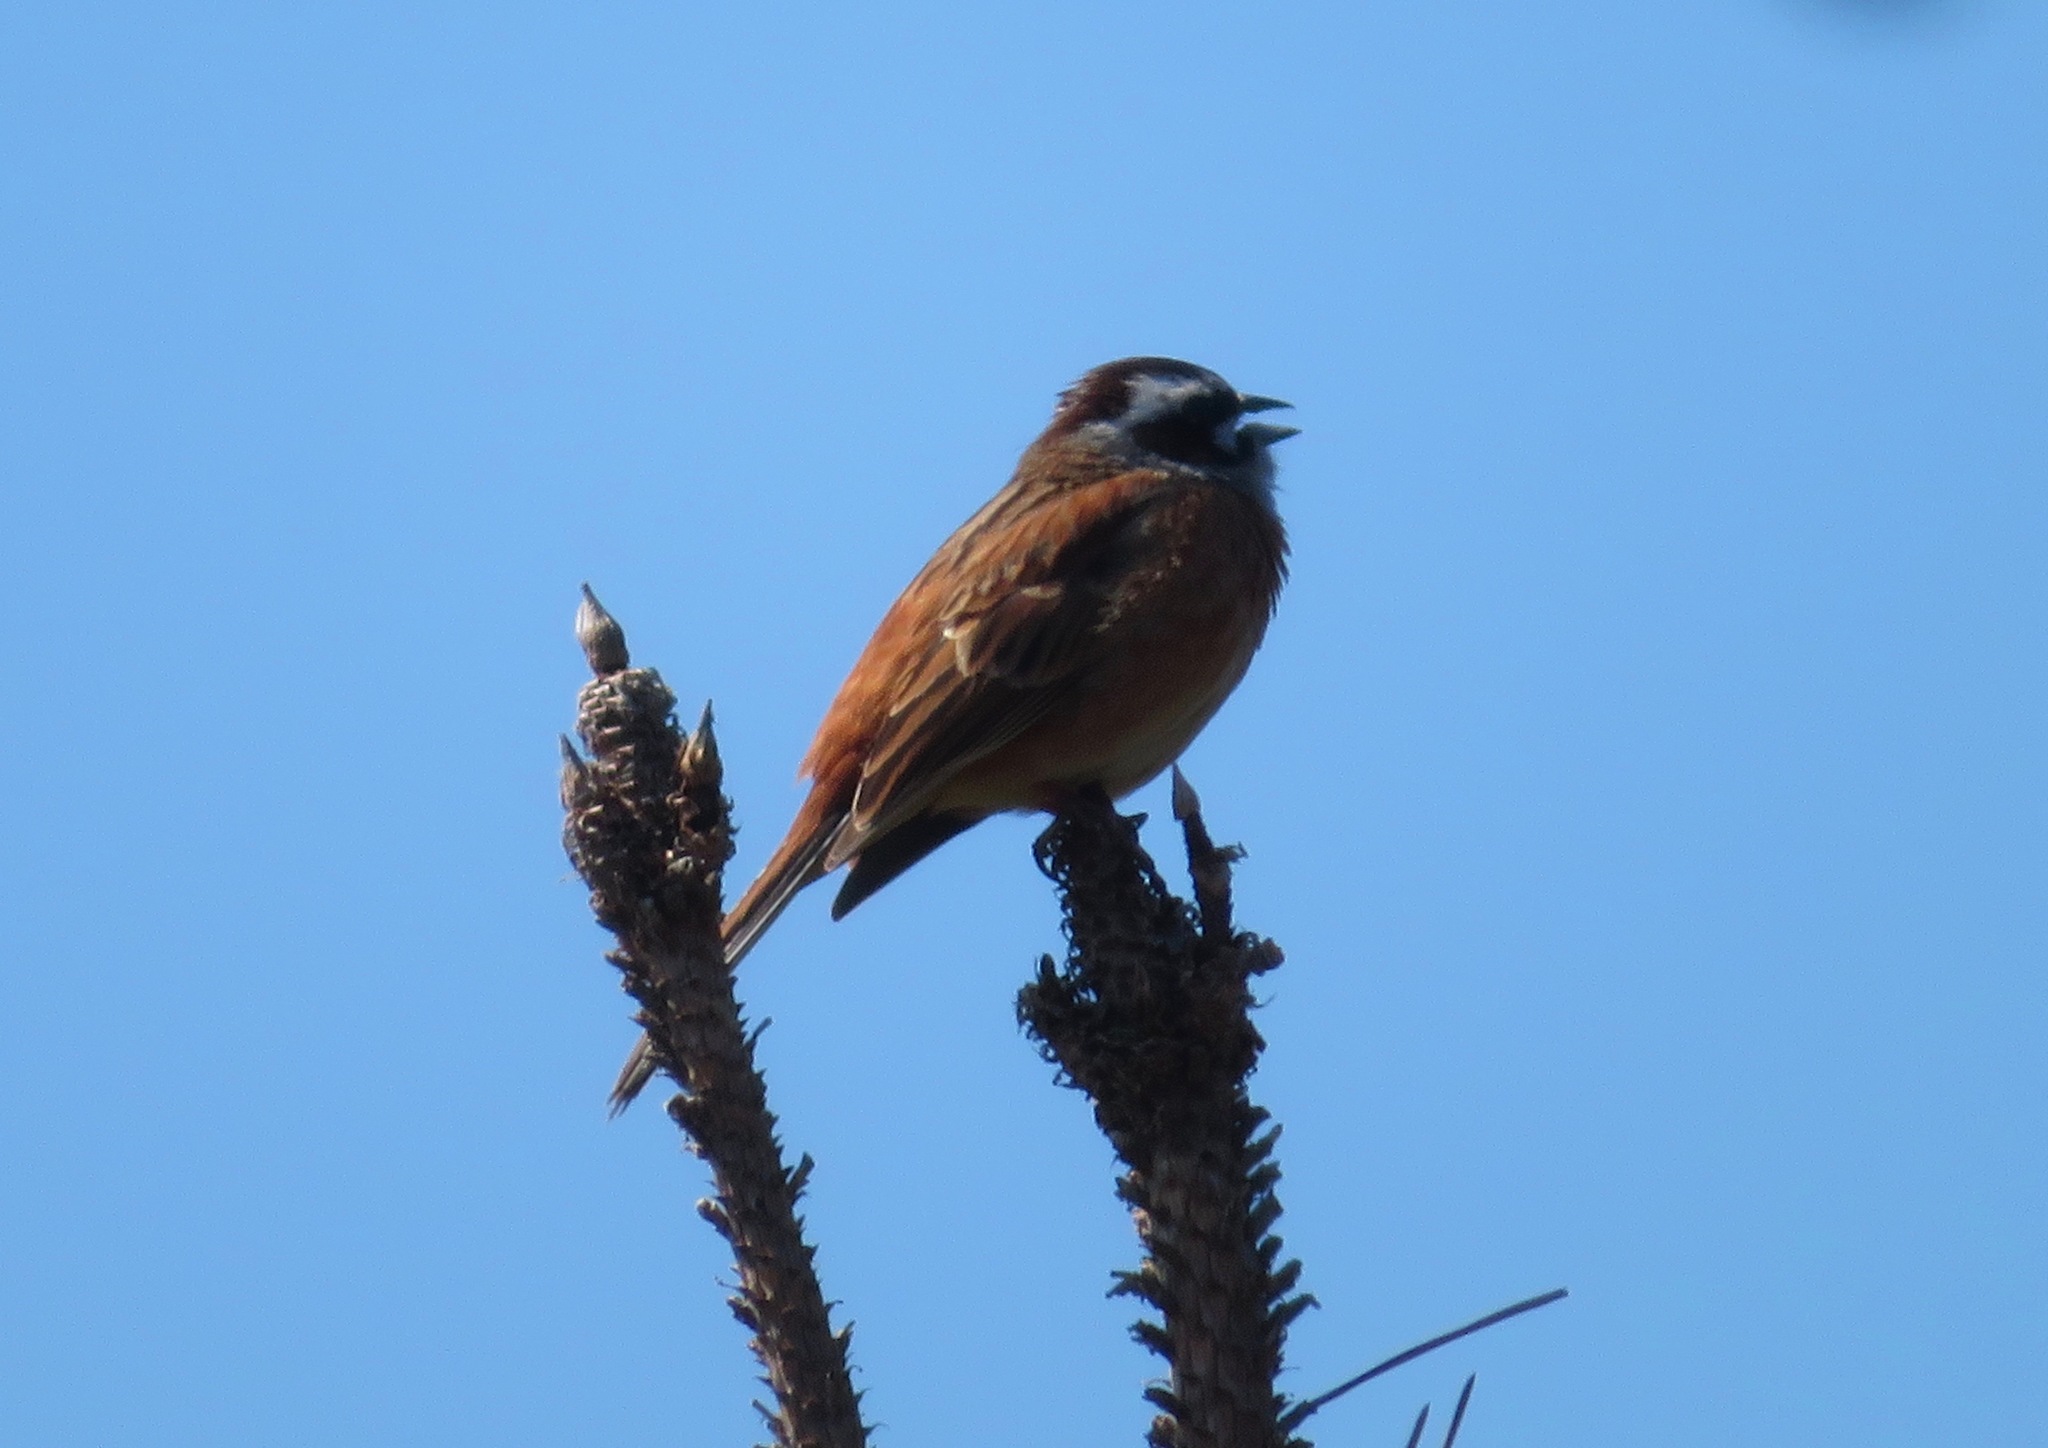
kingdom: Animalia
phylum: Chordata
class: Aves
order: Passeriformes
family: Emberizidae
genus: Emberiza
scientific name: Emberiza cioides
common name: Meadow bunting
